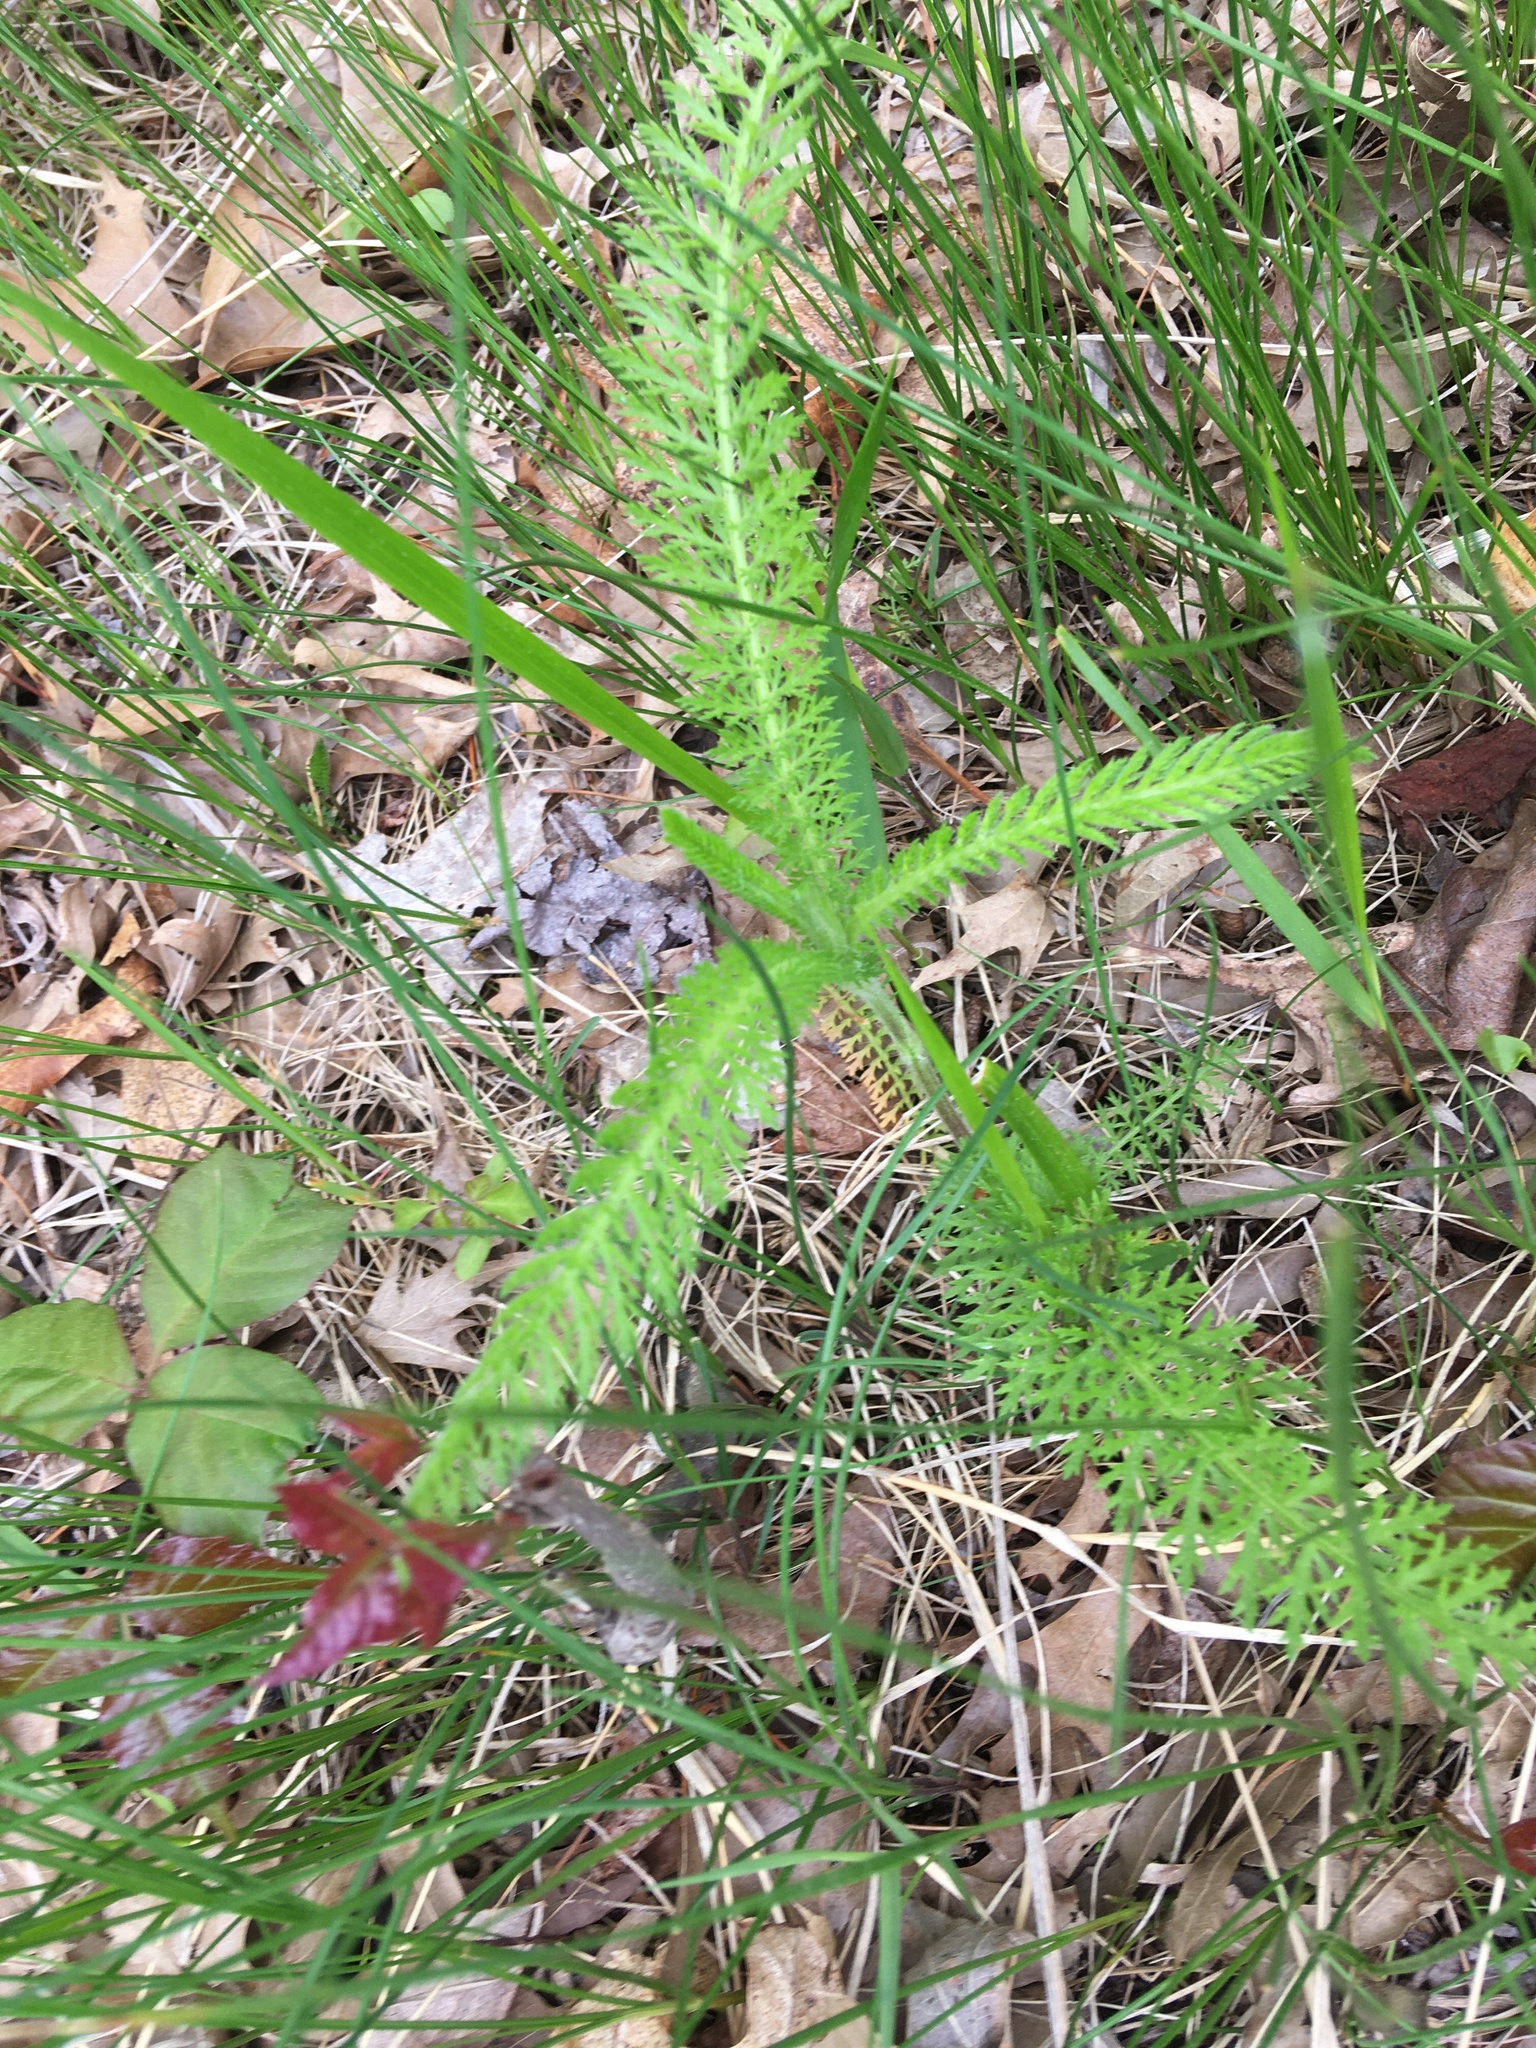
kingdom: Plantae
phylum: Tracheophyta
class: Magnoliopsida
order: Asterales
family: Asteraceae
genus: Achillea
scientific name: Achillea millefolium
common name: Yarrow
